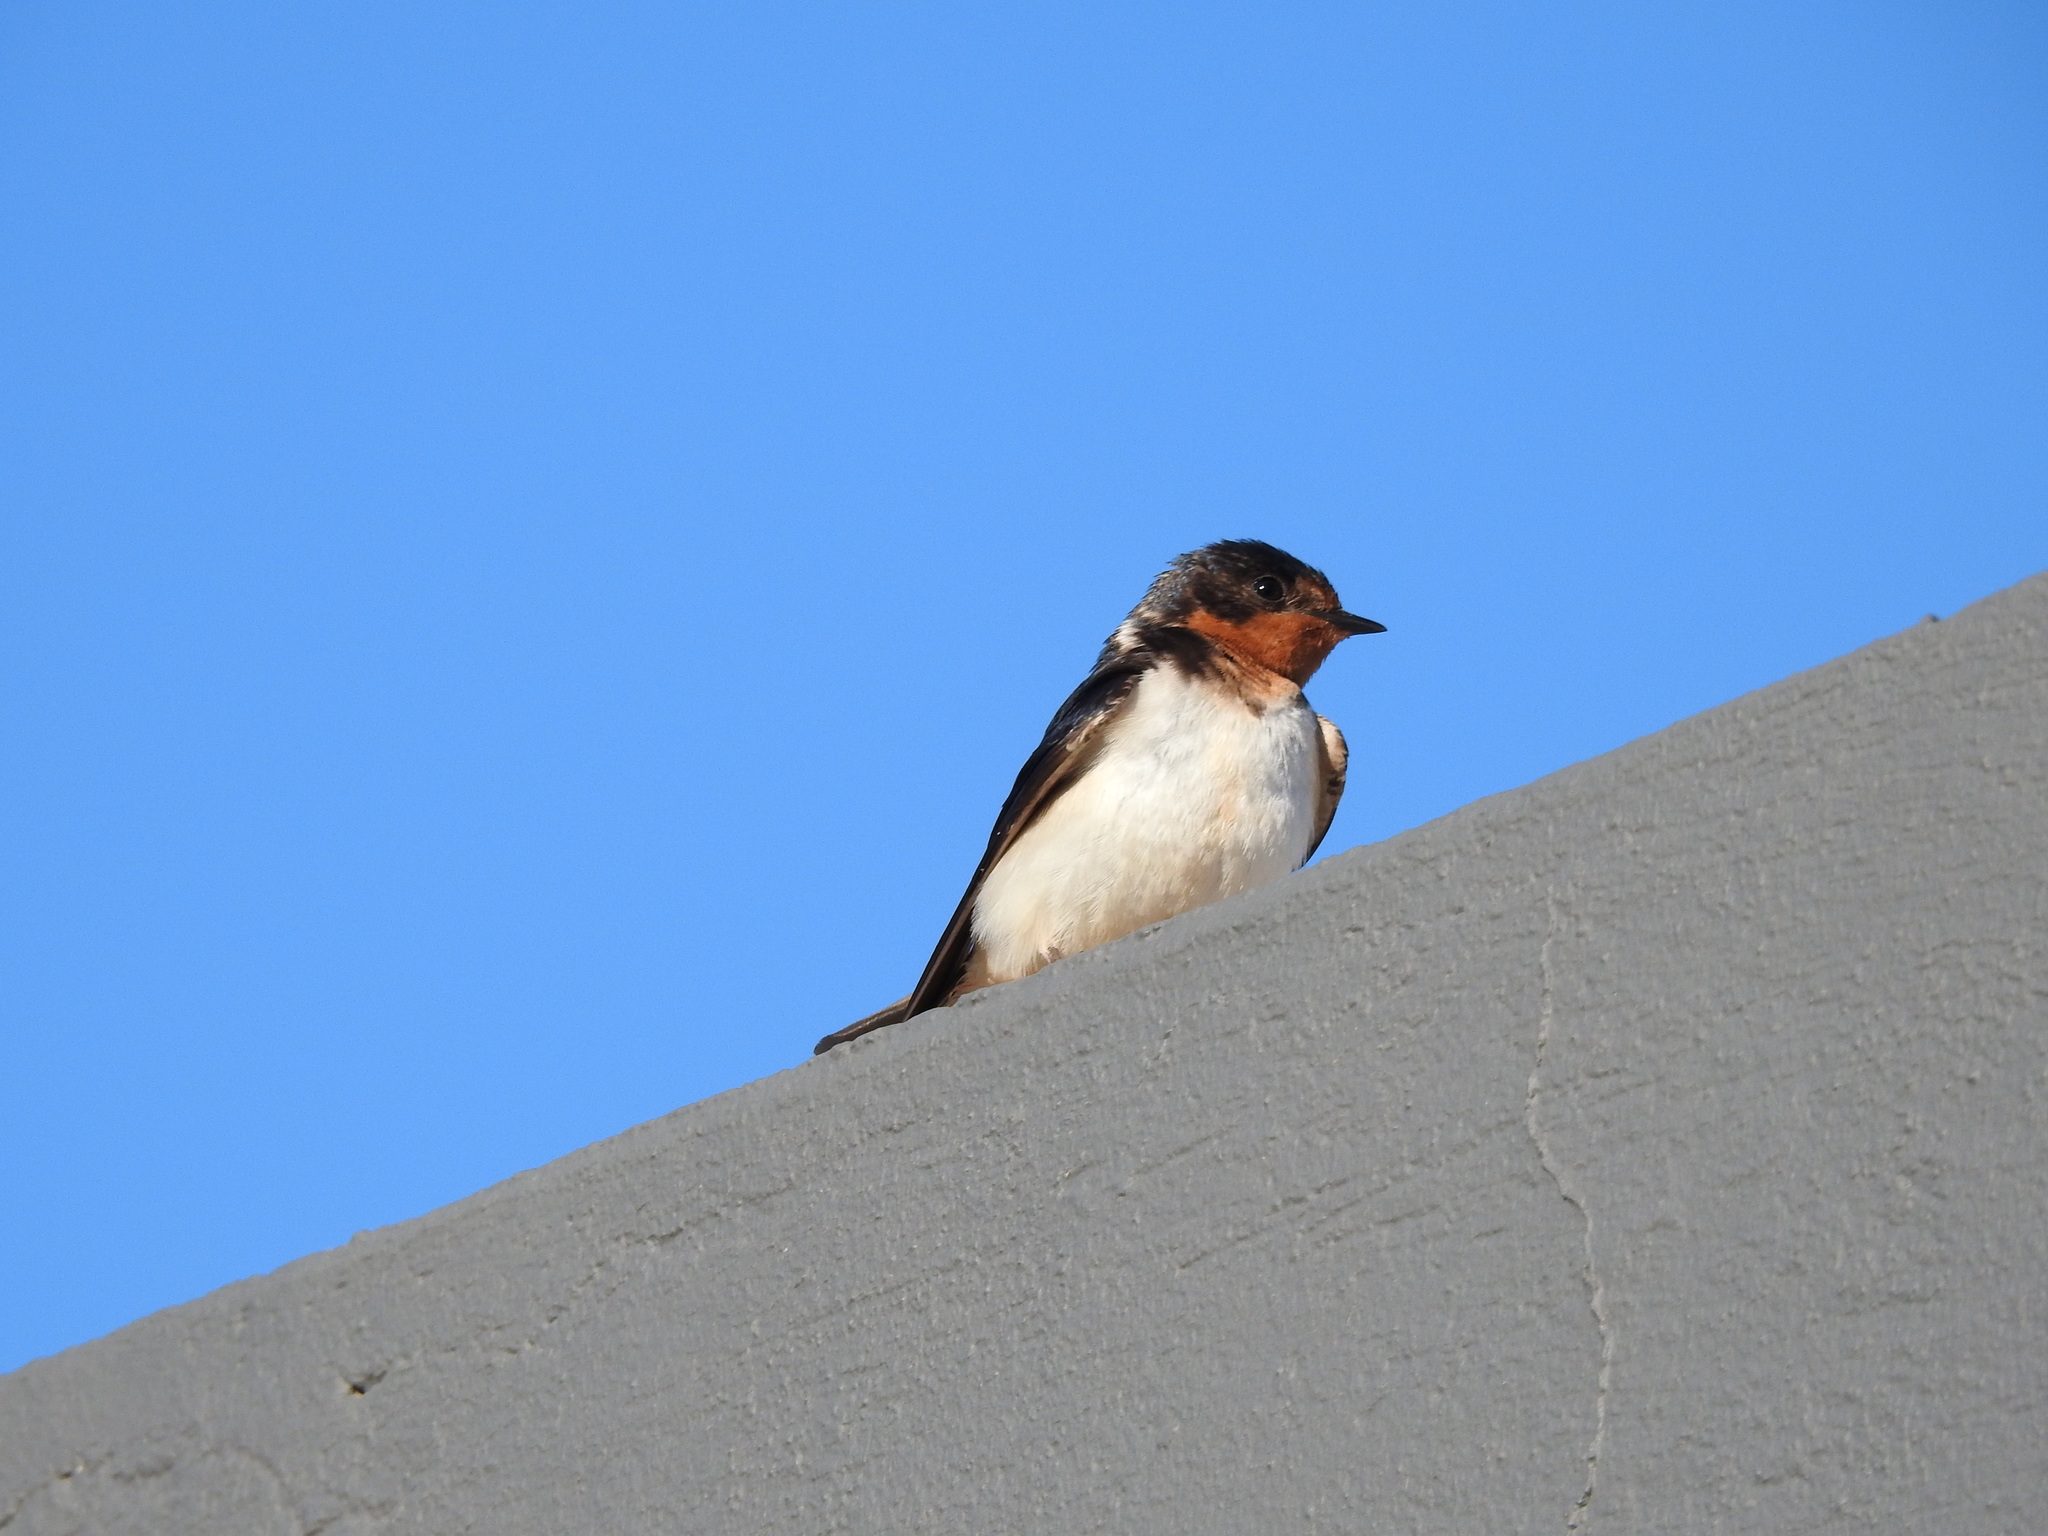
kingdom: Animalia
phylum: Chordata
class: Aves
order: Passeriformes
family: Hirundinidae
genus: Hirundo
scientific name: Hirundo rustica
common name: Barn swallow
